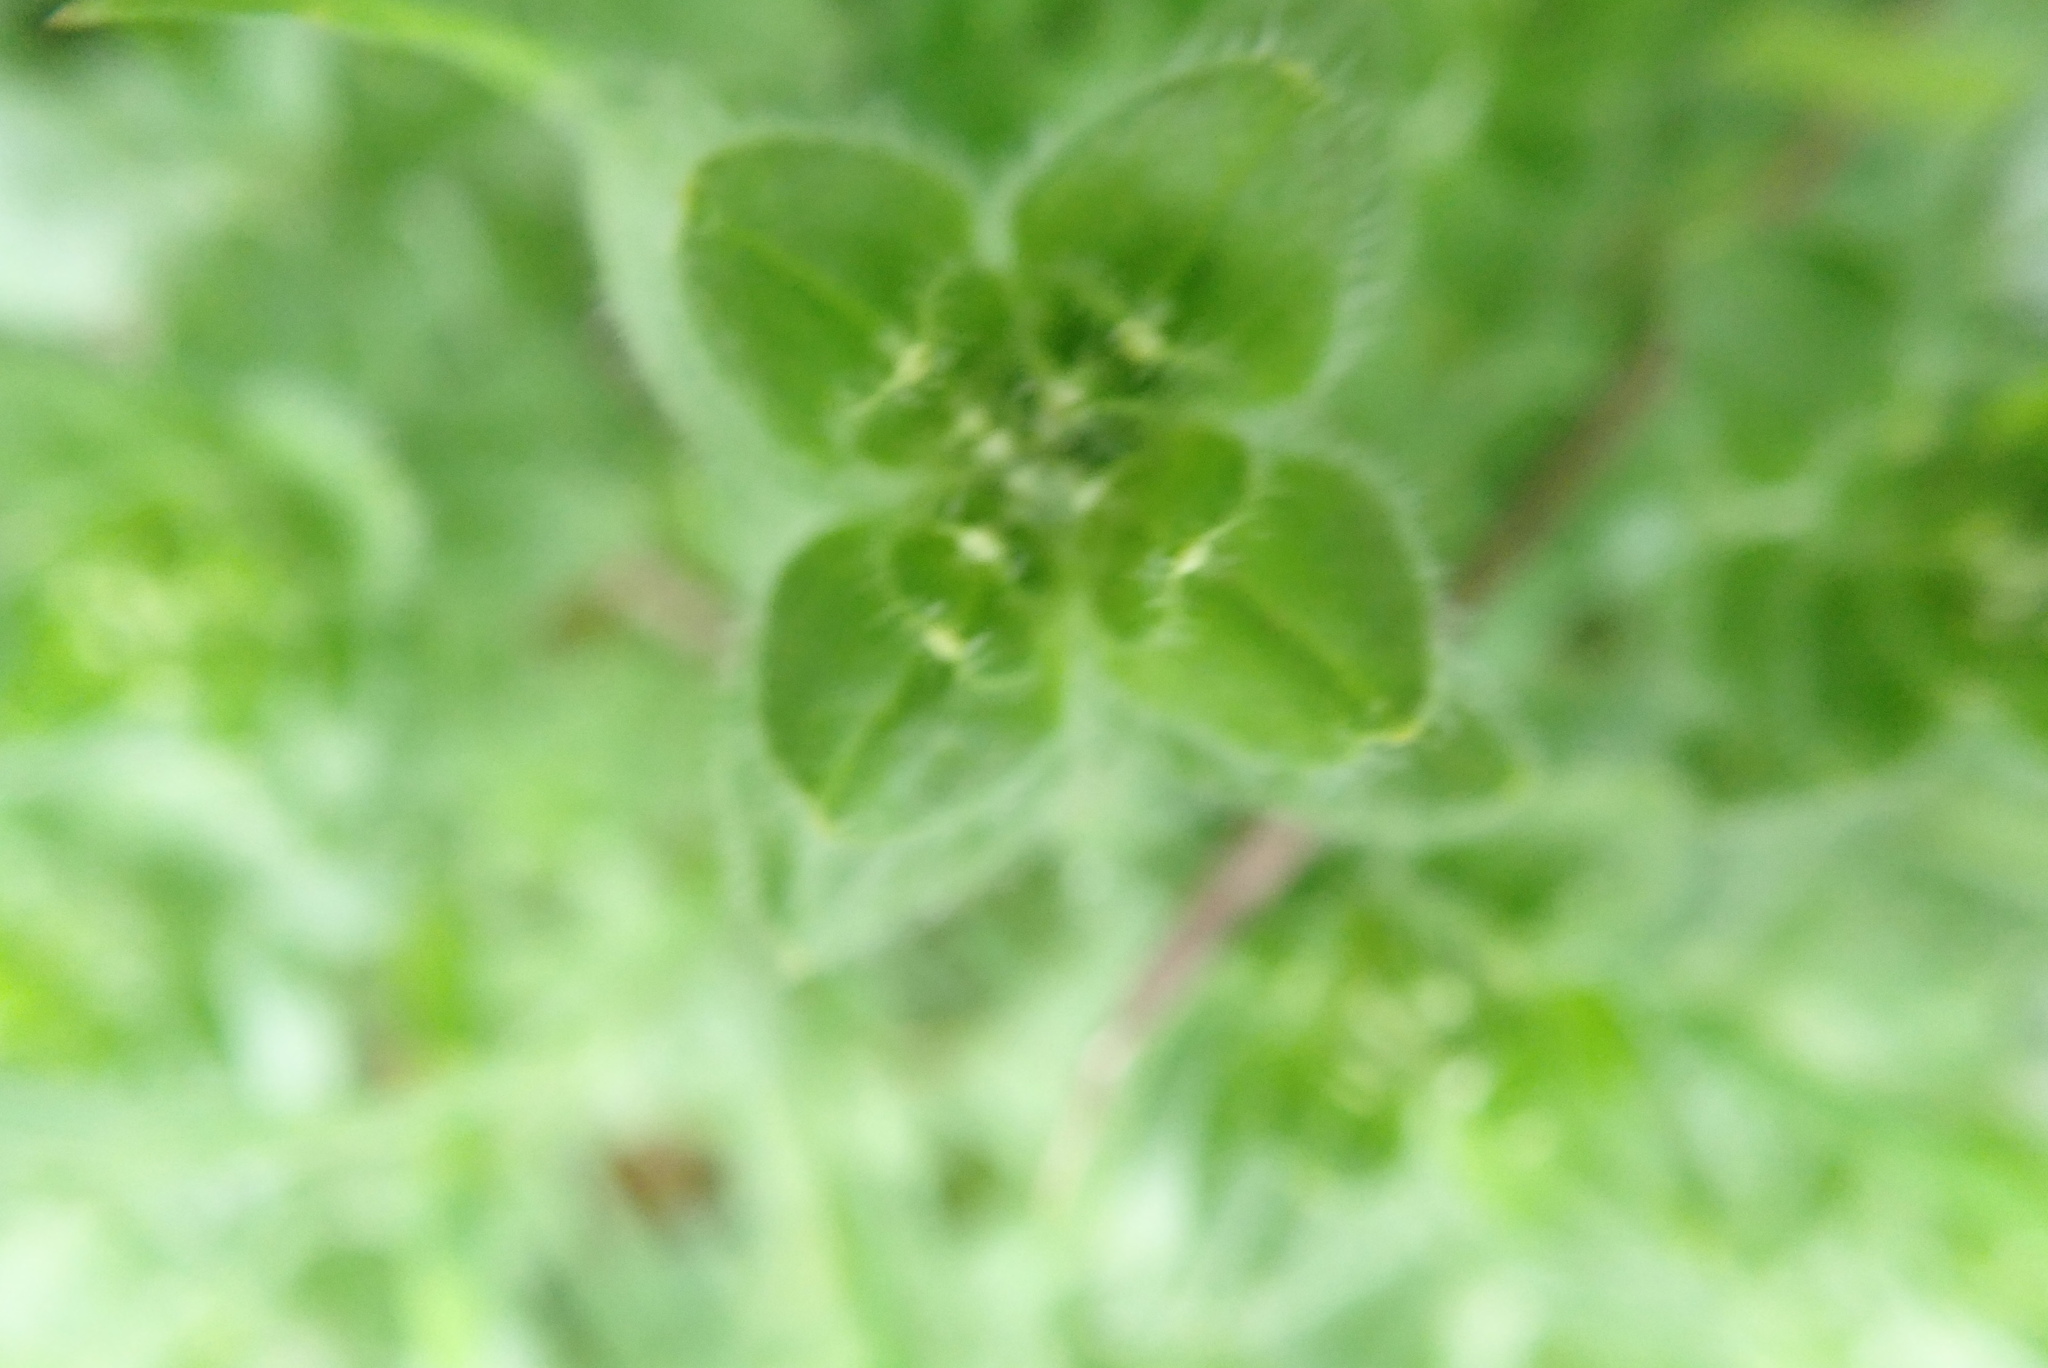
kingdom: Plantae
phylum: Tracheophyta
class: Magnoliopsida
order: Gentianales
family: Rubiaceae
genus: Cruciata
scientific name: Cruciata laevipes
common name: Crosswort
